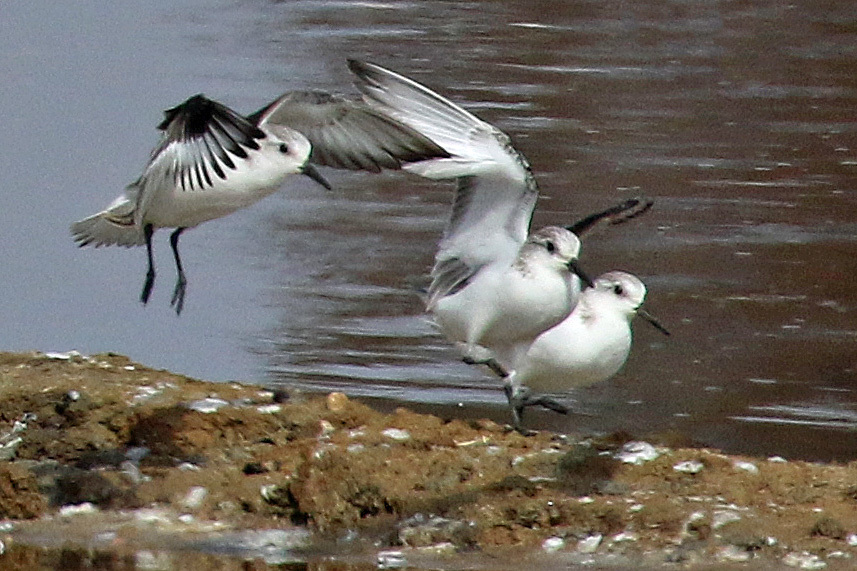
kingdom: Animalia
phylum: Chordata
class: Aves
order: Charadriiformes
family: Scolopacidae
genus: Calidris
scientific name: Calidris alba
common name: Sanderling
